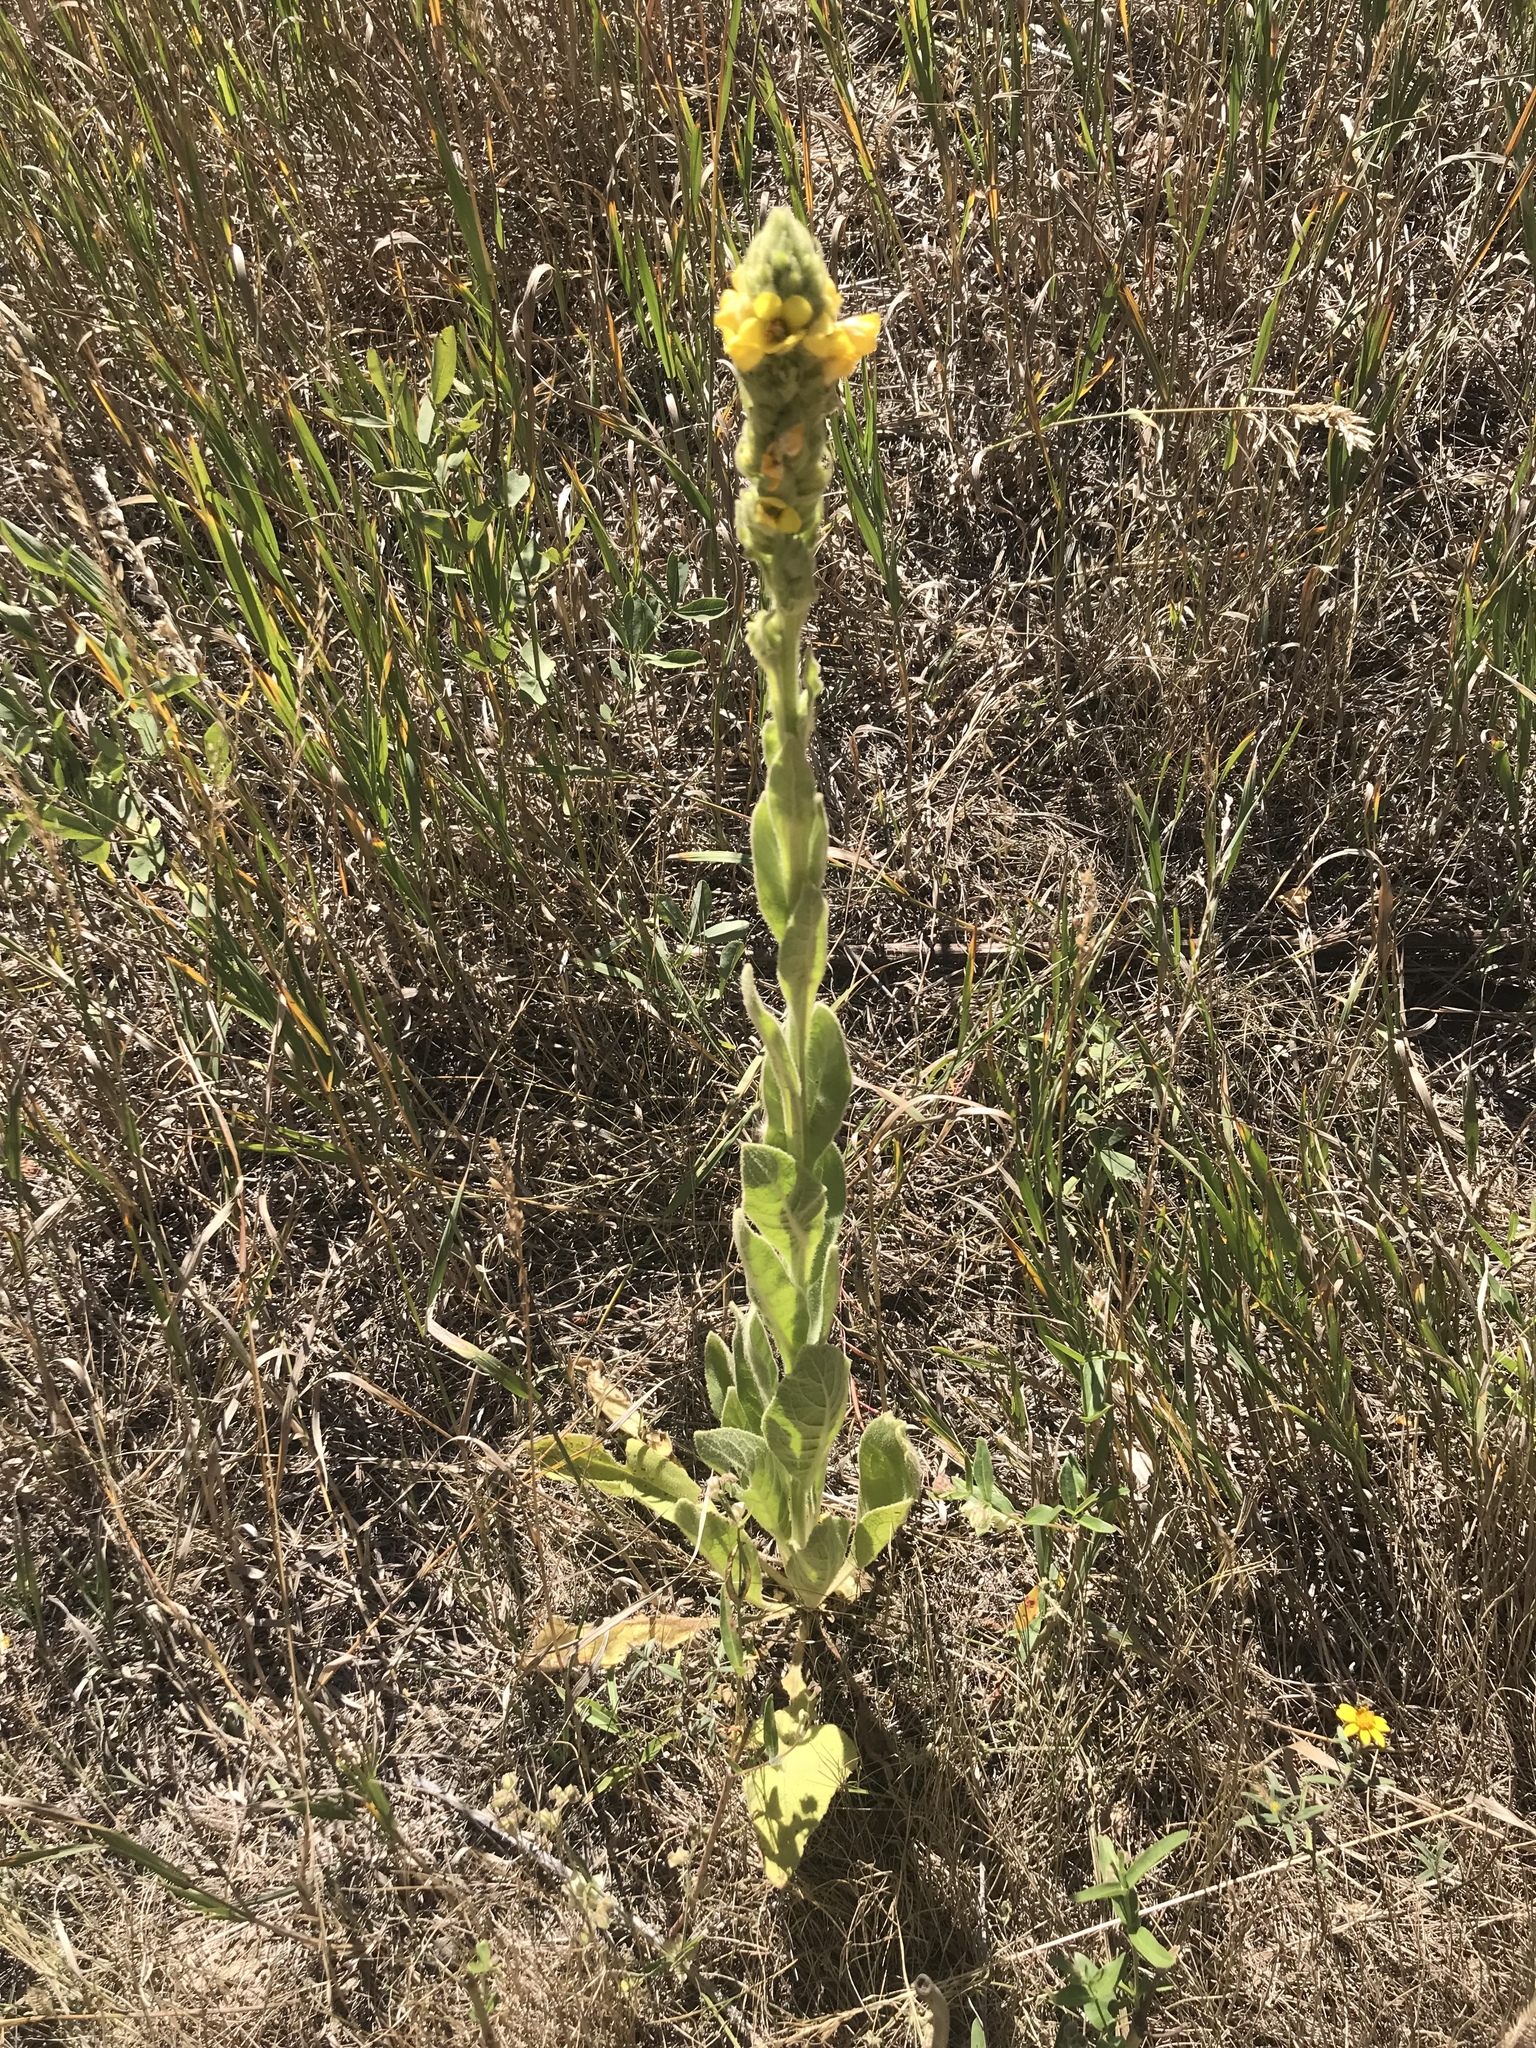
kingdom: Plantae
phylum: Tracheophyta
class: Magnoliopsida
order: Lamiales
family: Scrophulariaceae
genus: Verbascum
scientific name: Verbascum thapsus
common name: Common mullein
